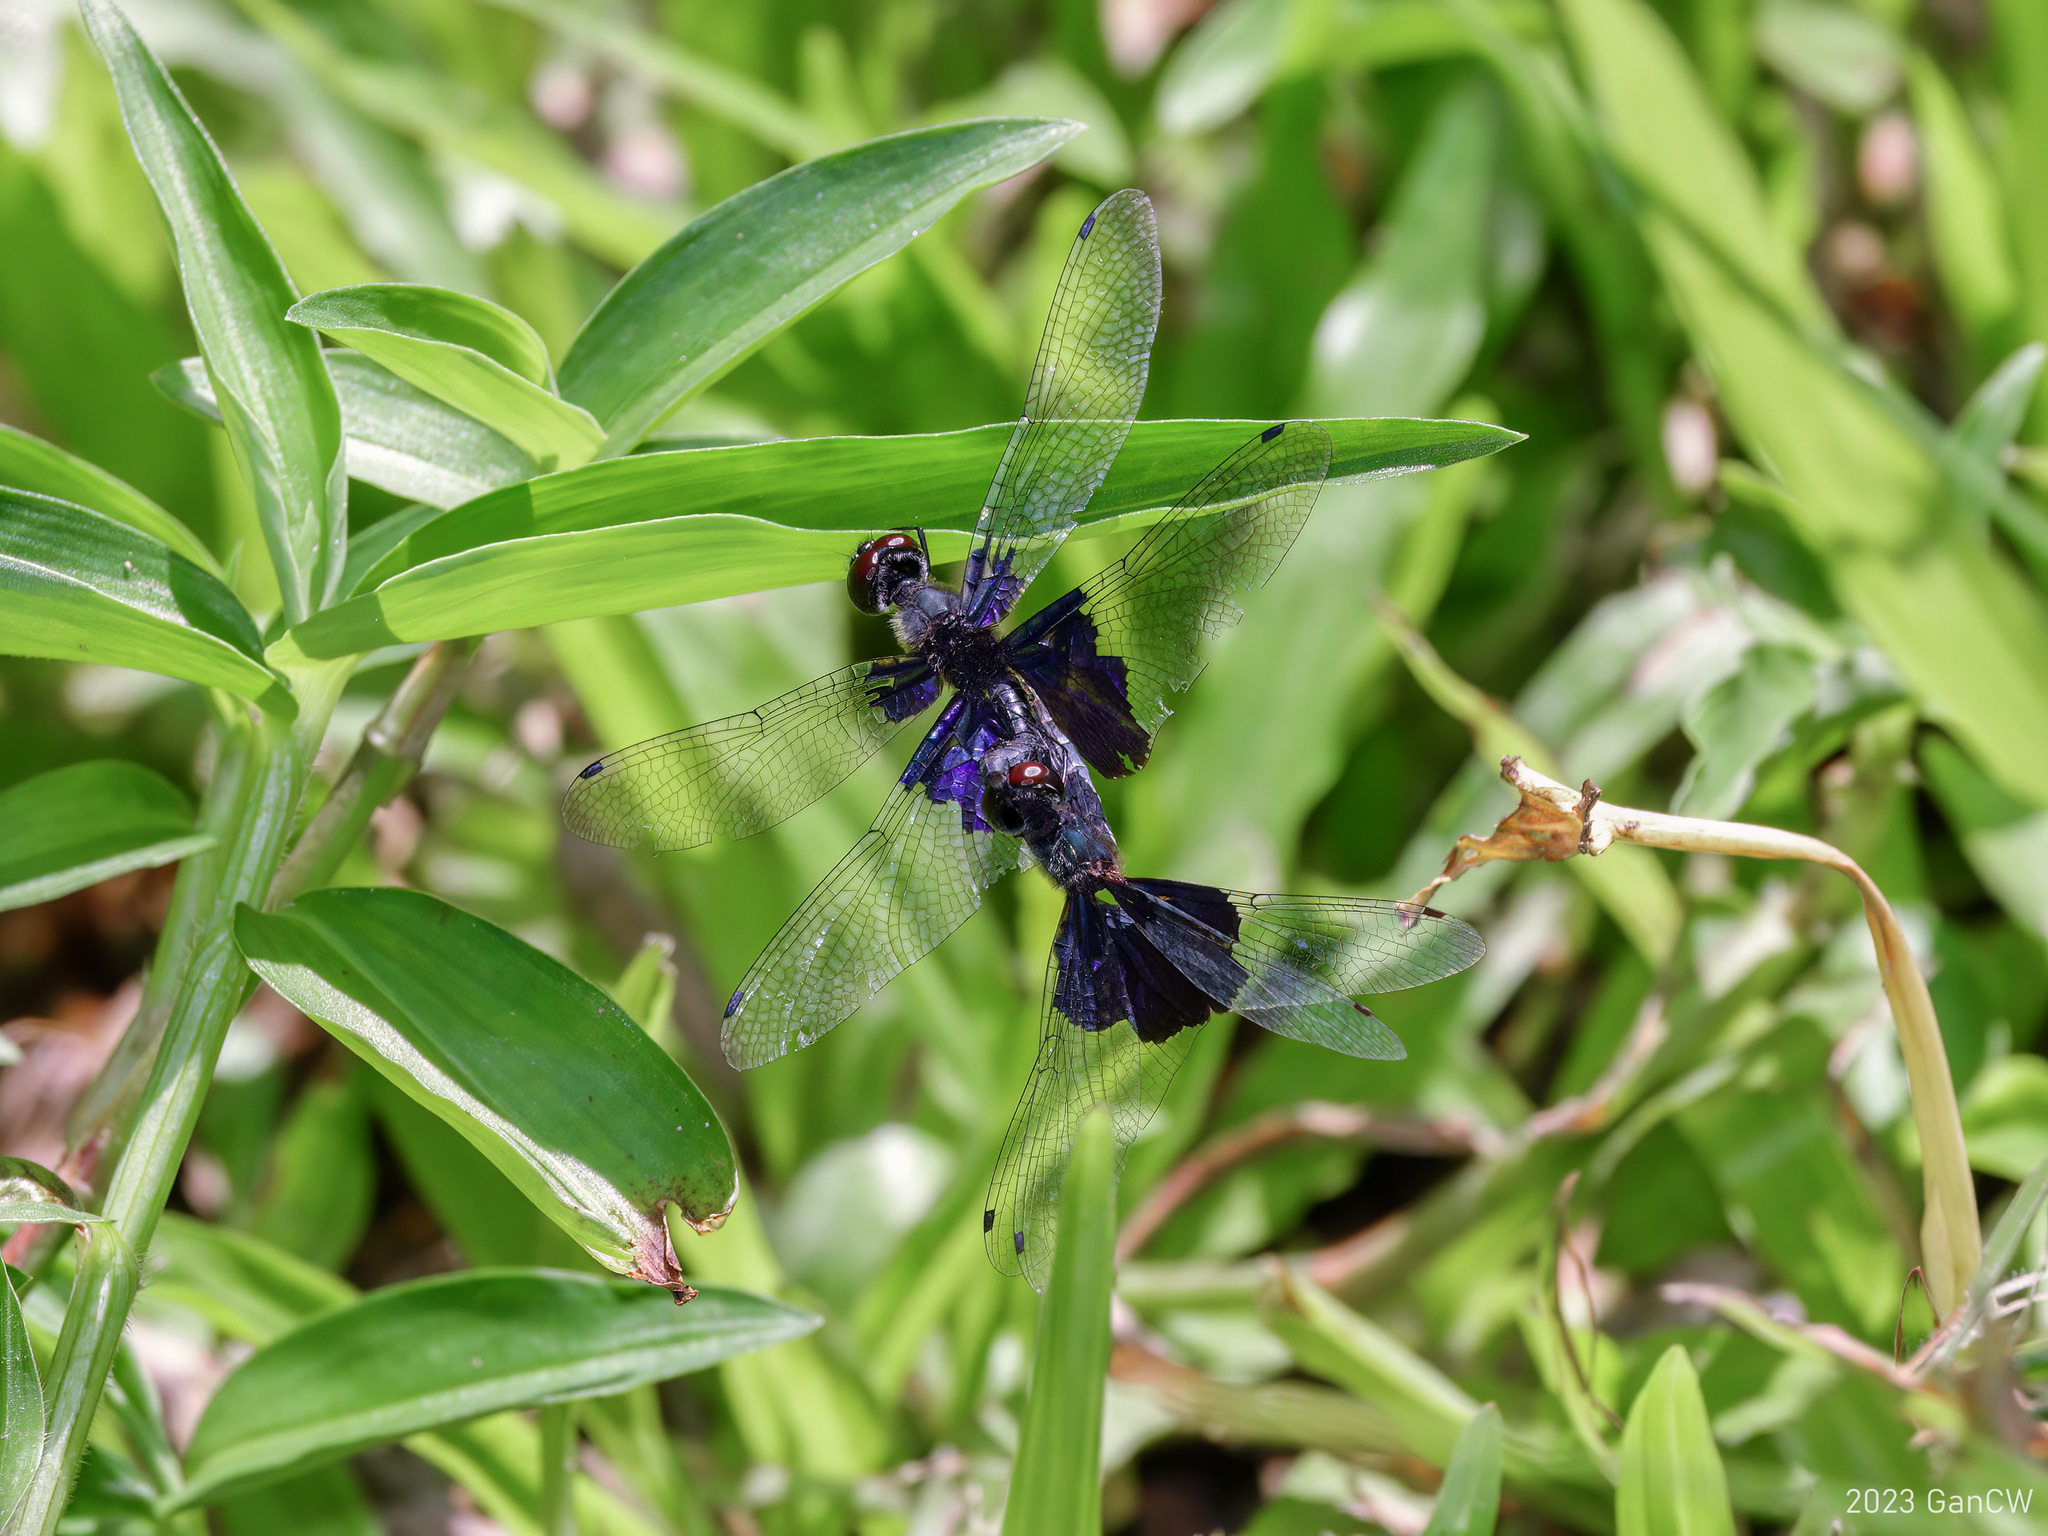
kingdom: Animalia
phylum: Arthropoda
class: Insecta
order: Odonata
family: Libellulidae
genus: Rhyothemis
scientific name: Rhyothemis triangularis
